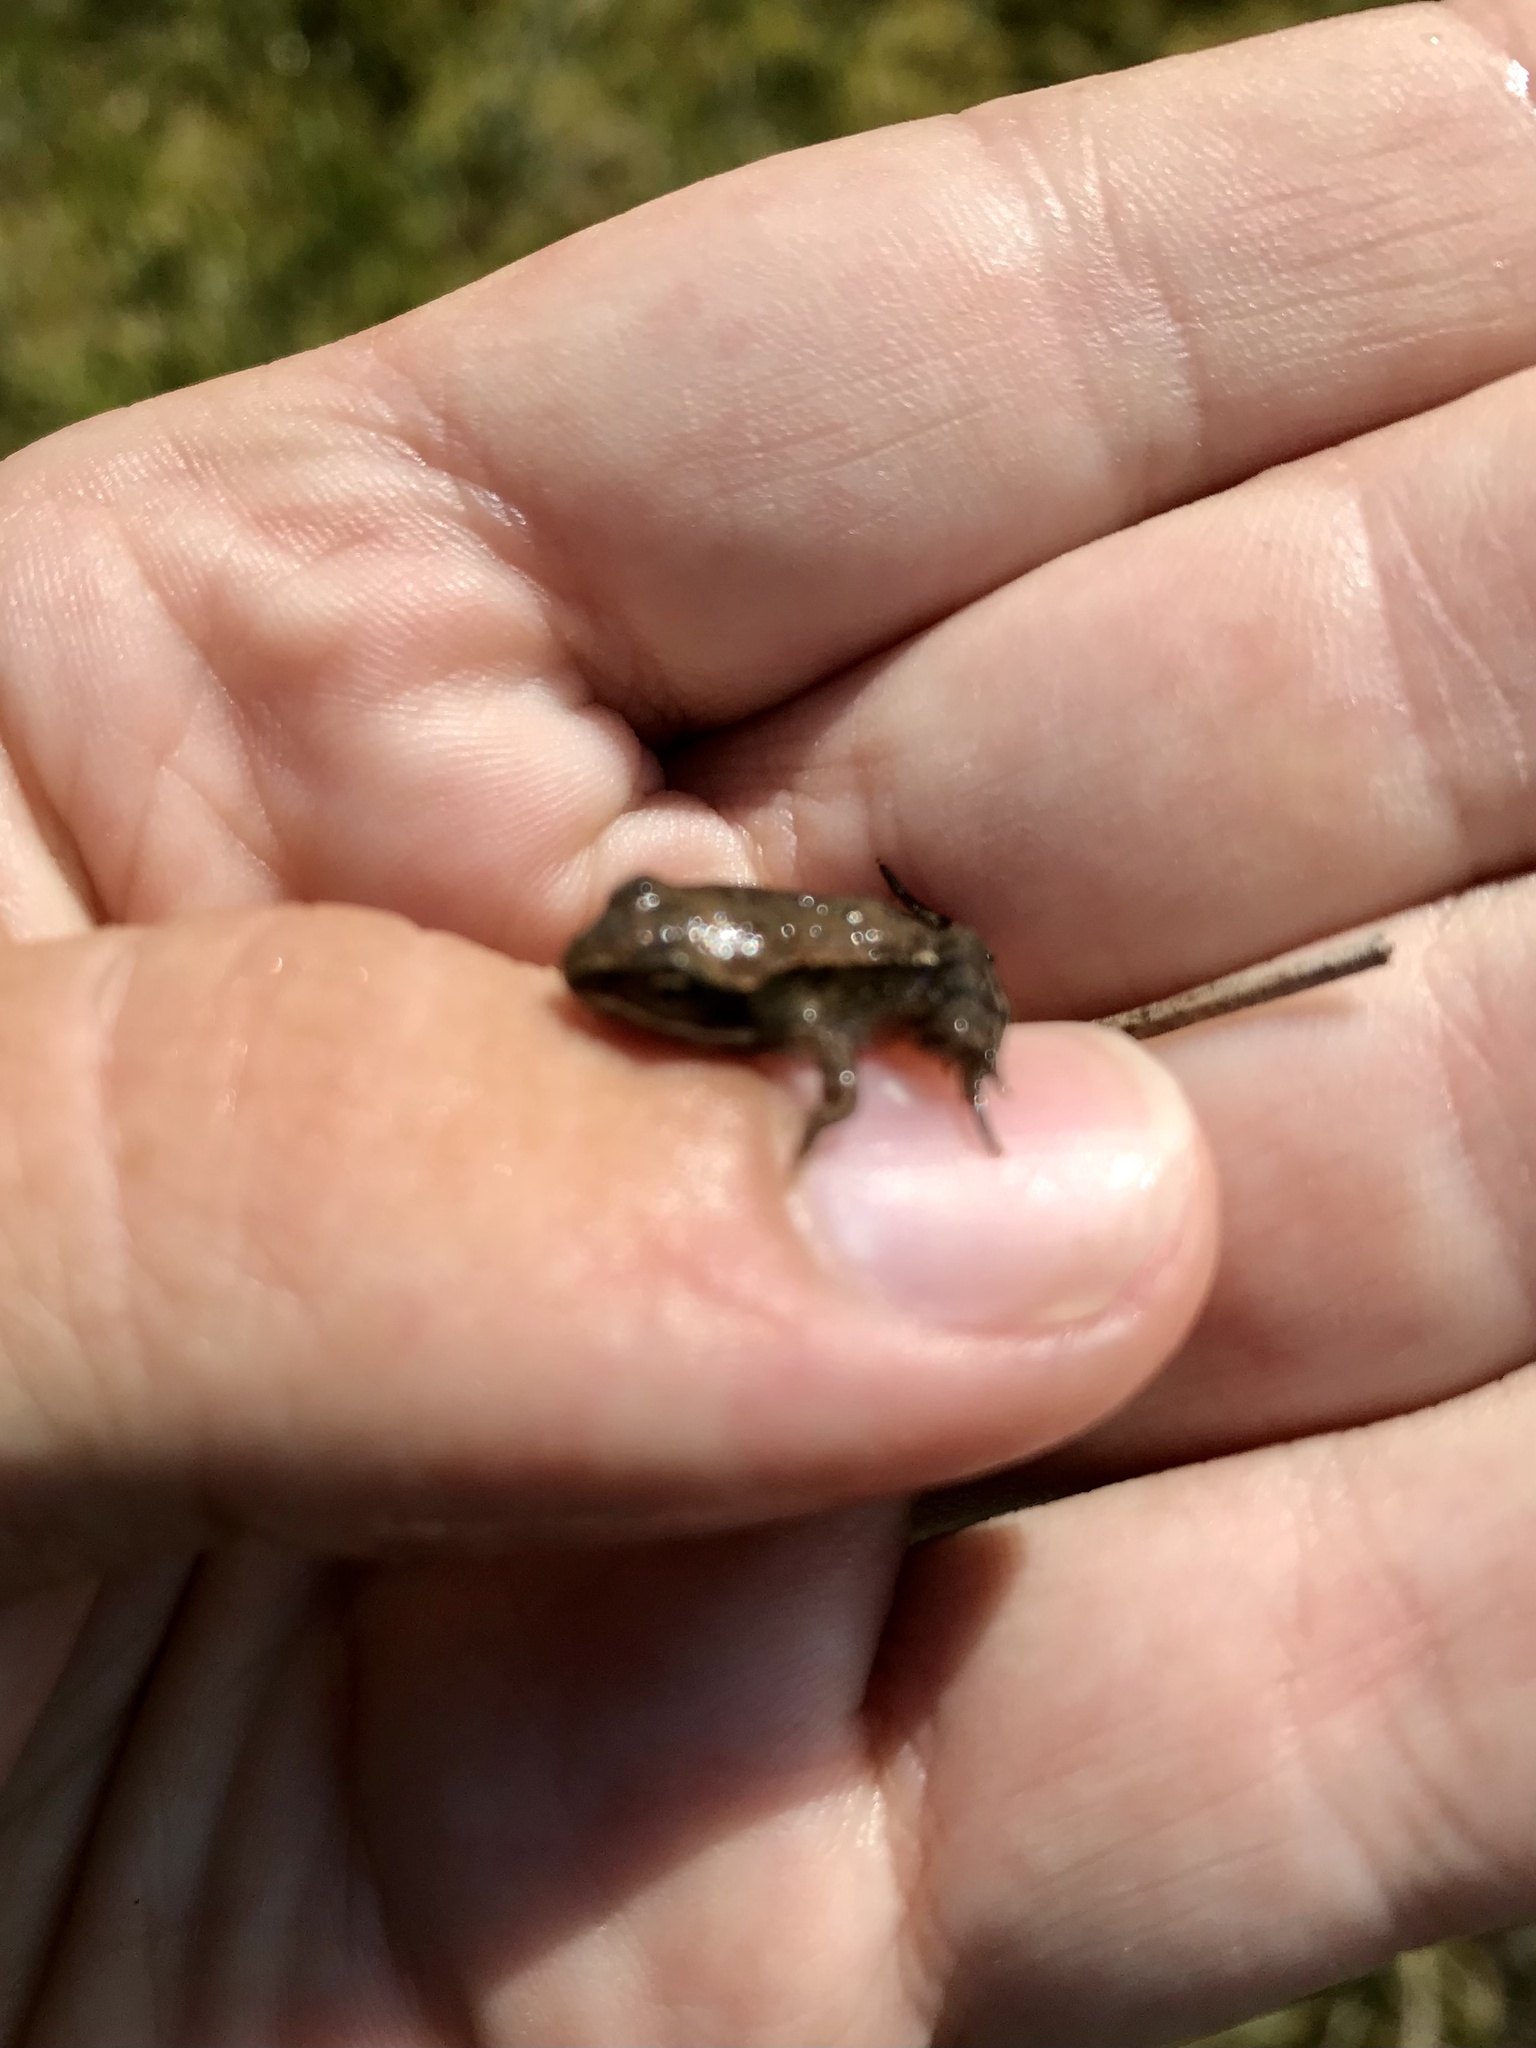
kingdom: Animalia
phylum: Chordata
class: Amphibia
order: Anura
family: Ranidae
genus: Lithobates
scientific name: Lithobates sylvaticus
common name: Wood frog
